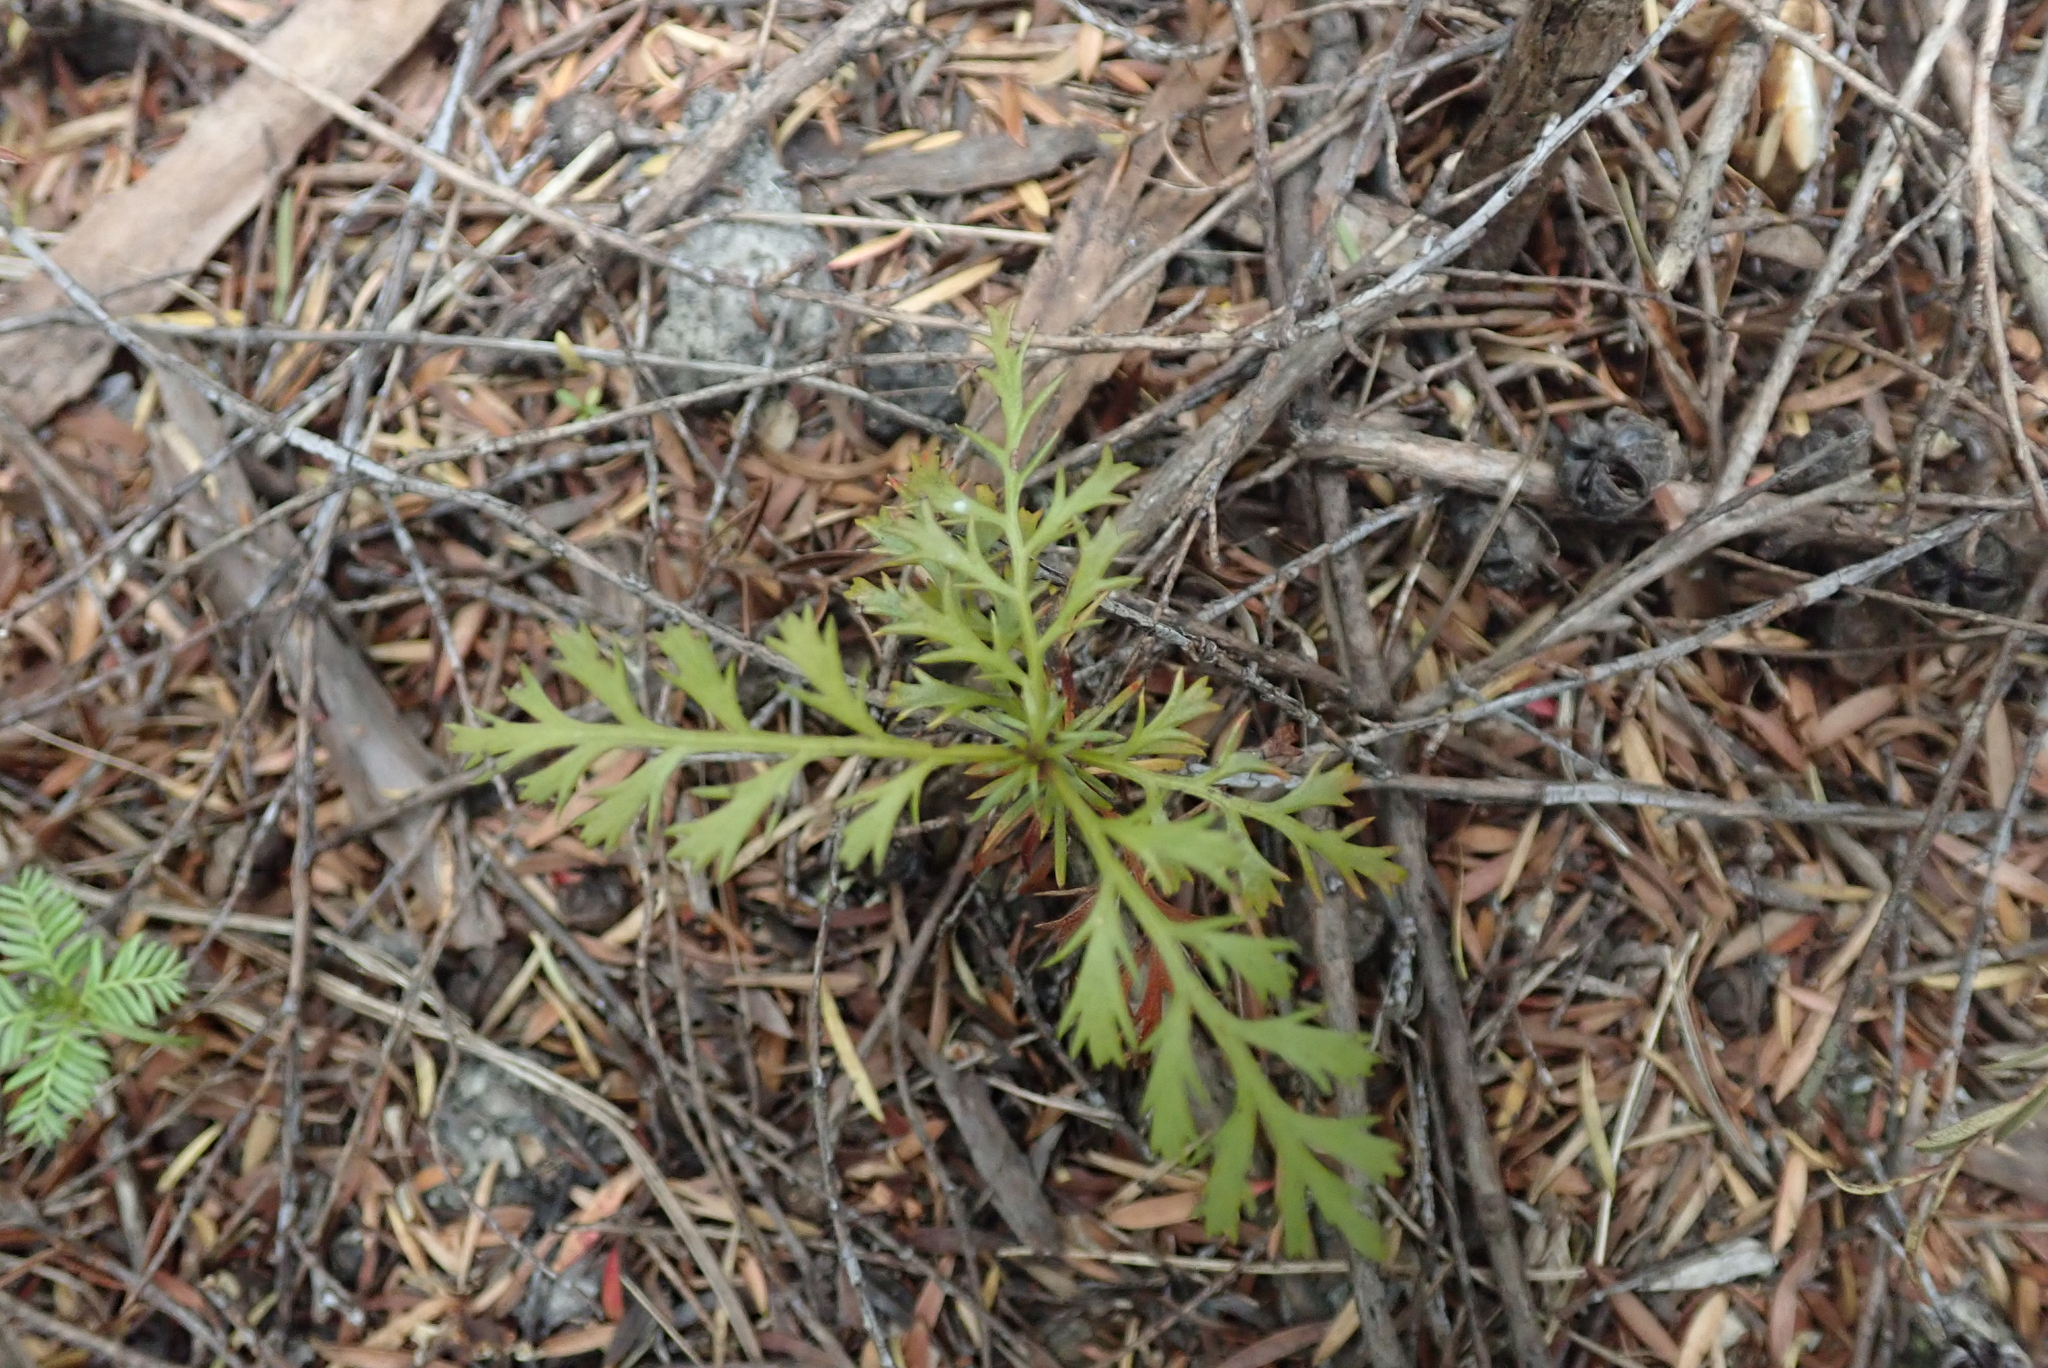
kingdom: Plantae
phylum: Tracheophyta
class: Pinopsida
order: Pinales
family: Phyllocladaceae
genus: Phyllocladus
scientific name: Phyllocladus trichomanoides
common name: Celery pine
